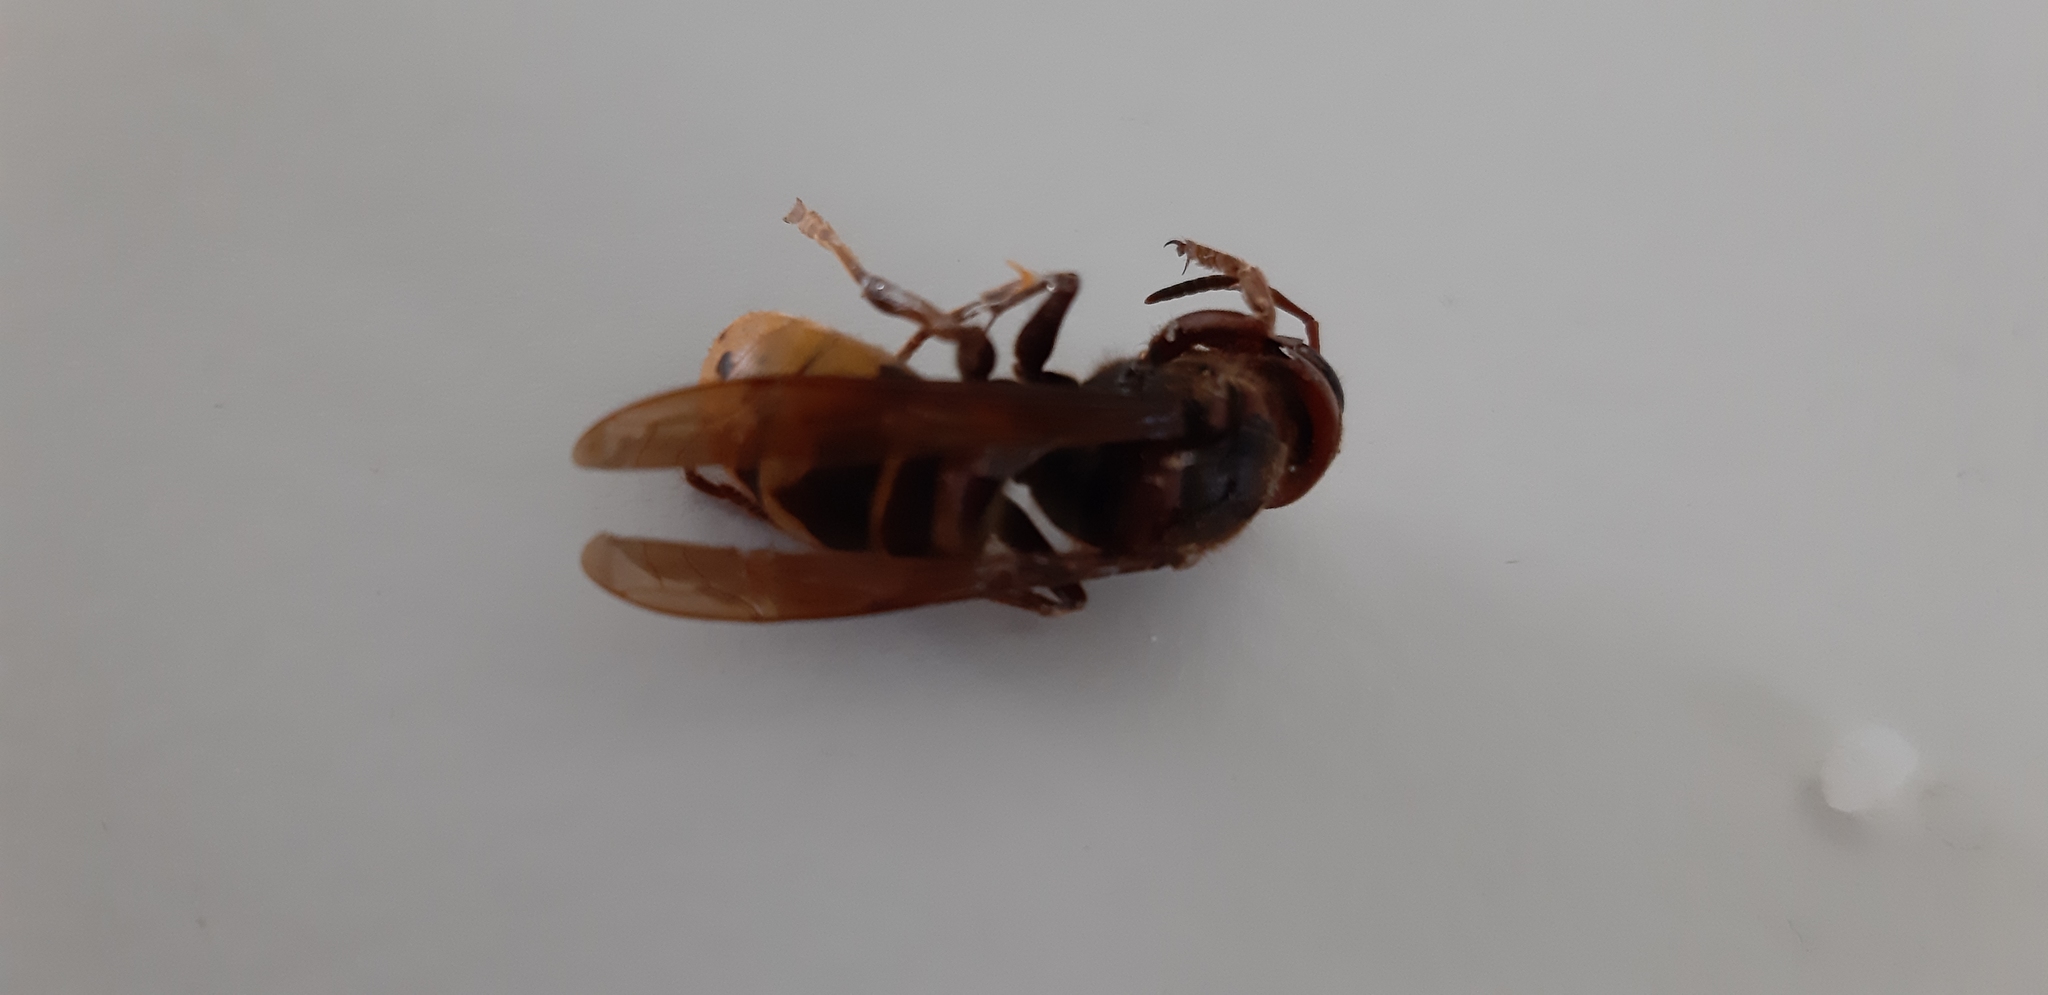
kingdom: Animalia
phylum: Arthropoda
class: Insecta
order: Hymenoptera
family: Vespidae
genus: Vespa
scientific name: Vespa crabro
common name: Hornet
